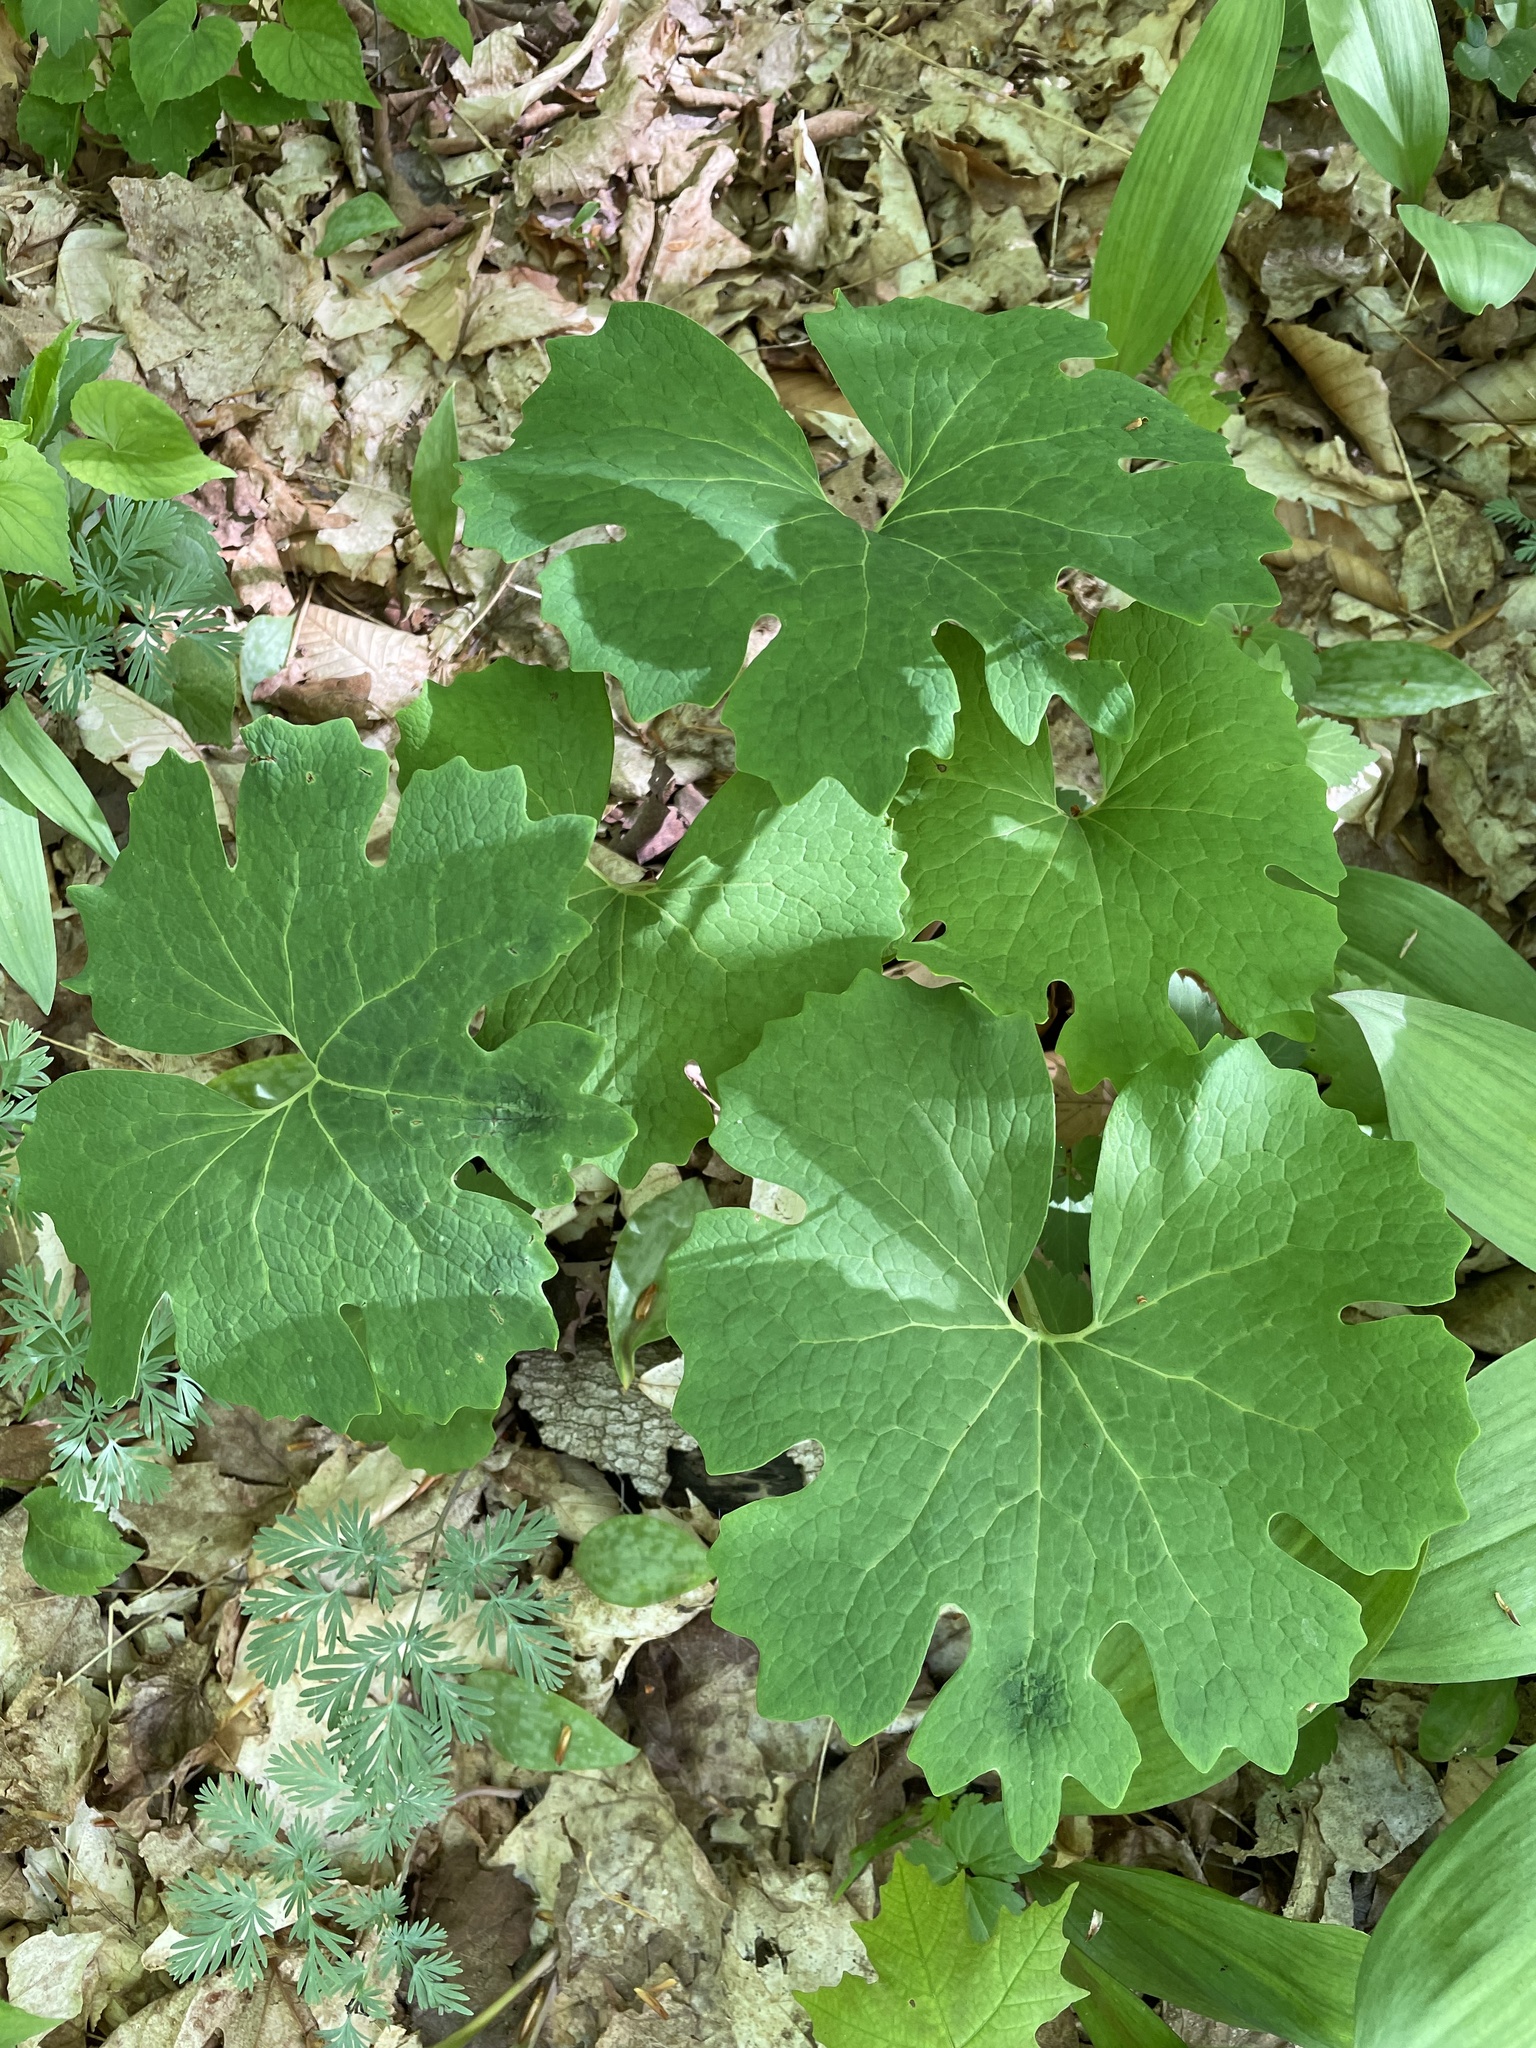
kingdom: Plantae
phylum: Tracheophyta
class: Magnoliopsida
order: Ranunculales
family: Papaveraceae
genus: Sanguinaria
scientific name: Sanguinaria canadensis
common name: Bloodroot
